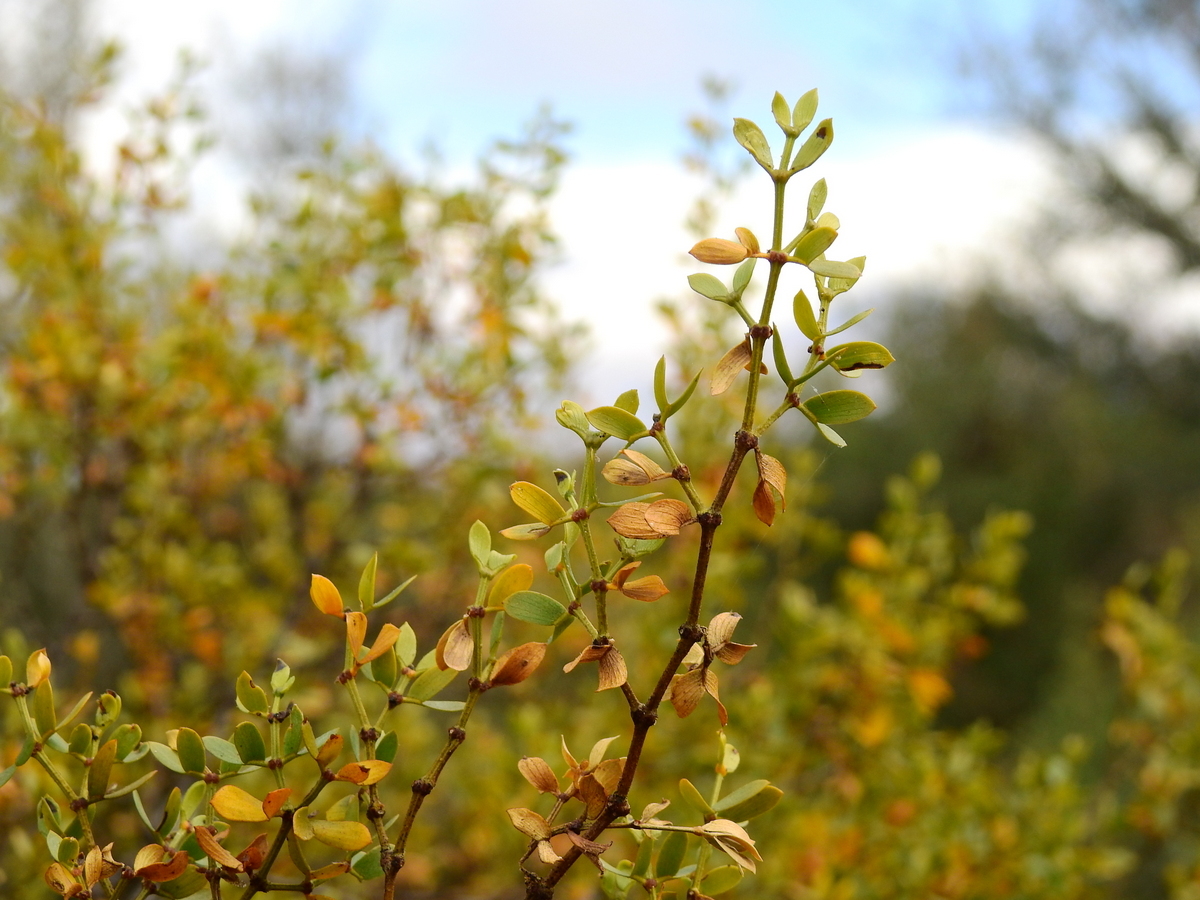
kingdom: Plantae
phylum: Tracheophyta
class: Magnoliopsida
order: Zygophyllales
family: Zygophyllaceae
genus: Larrea
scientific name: Larrea divaricata
